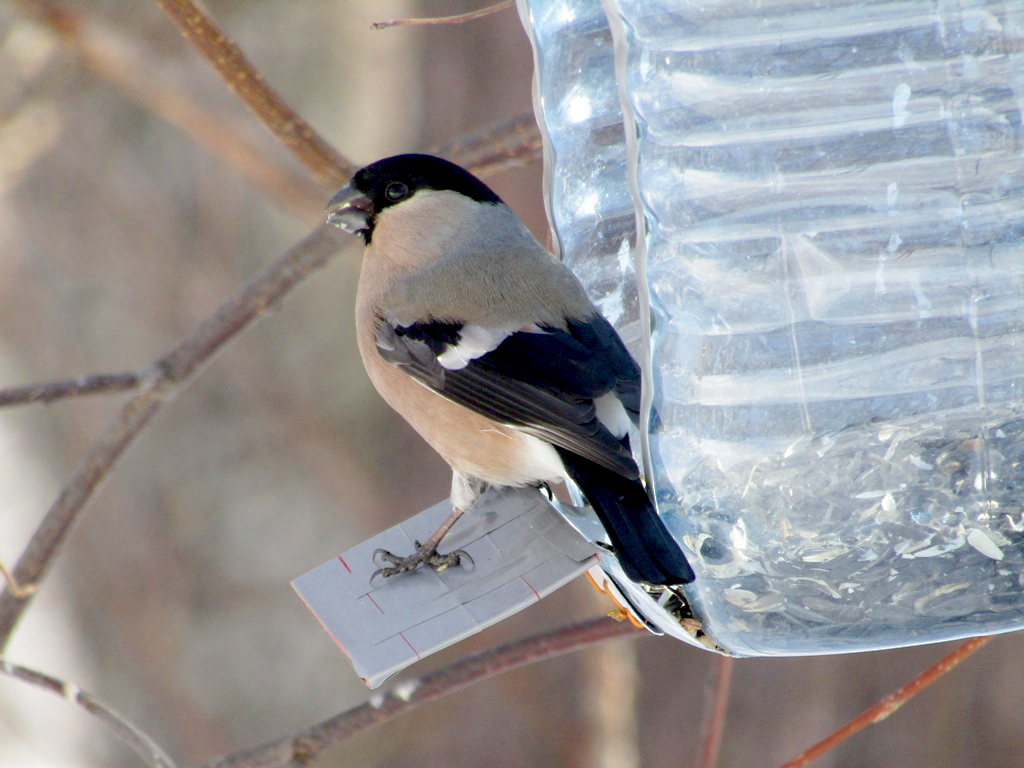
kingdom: Animalia
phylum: Chordata
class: Aves
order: Passeriformes
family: Fringillidae
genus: Pyrrhula
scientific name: Pyrrhula pyrrhula
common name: Eurasian bullfinch
